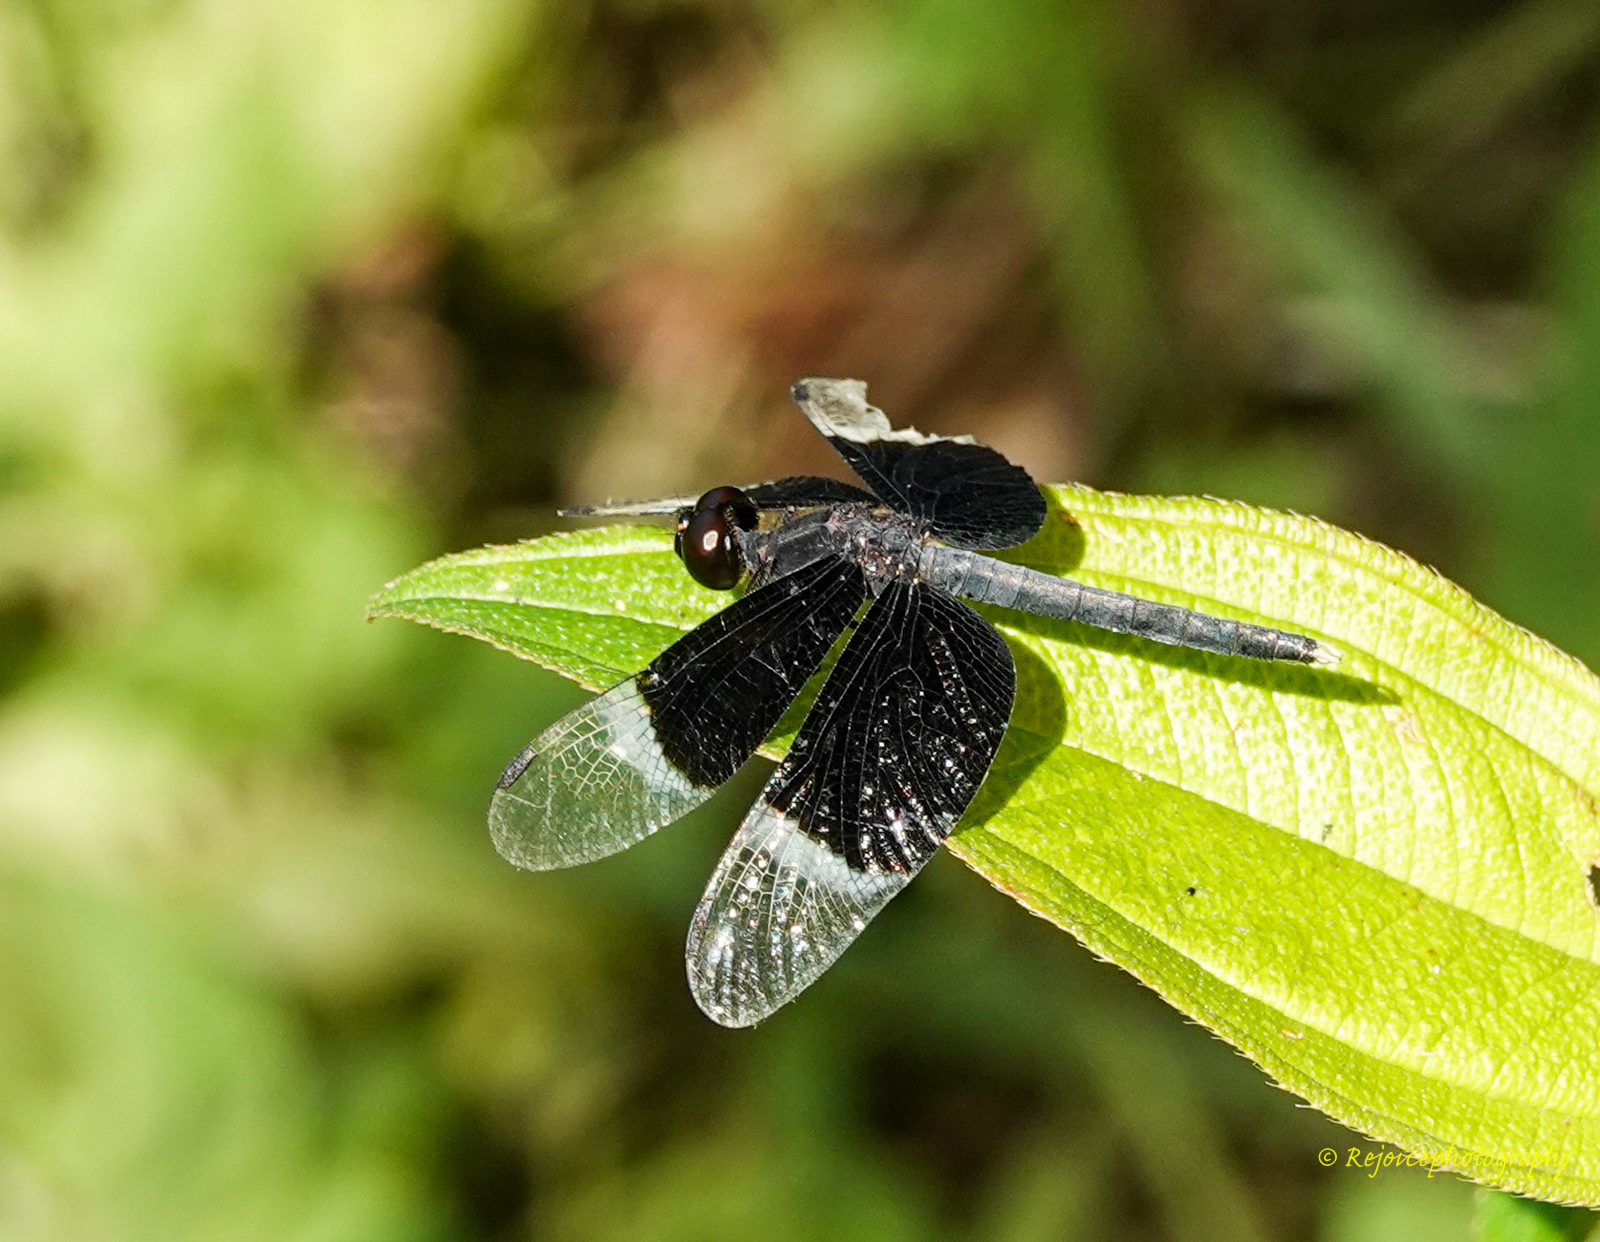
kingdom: Animalia
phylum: Arthropoda
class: Insecta
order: Odonata
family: Libellulidae
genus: Neurothemis
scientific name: Neurothemis tullia
